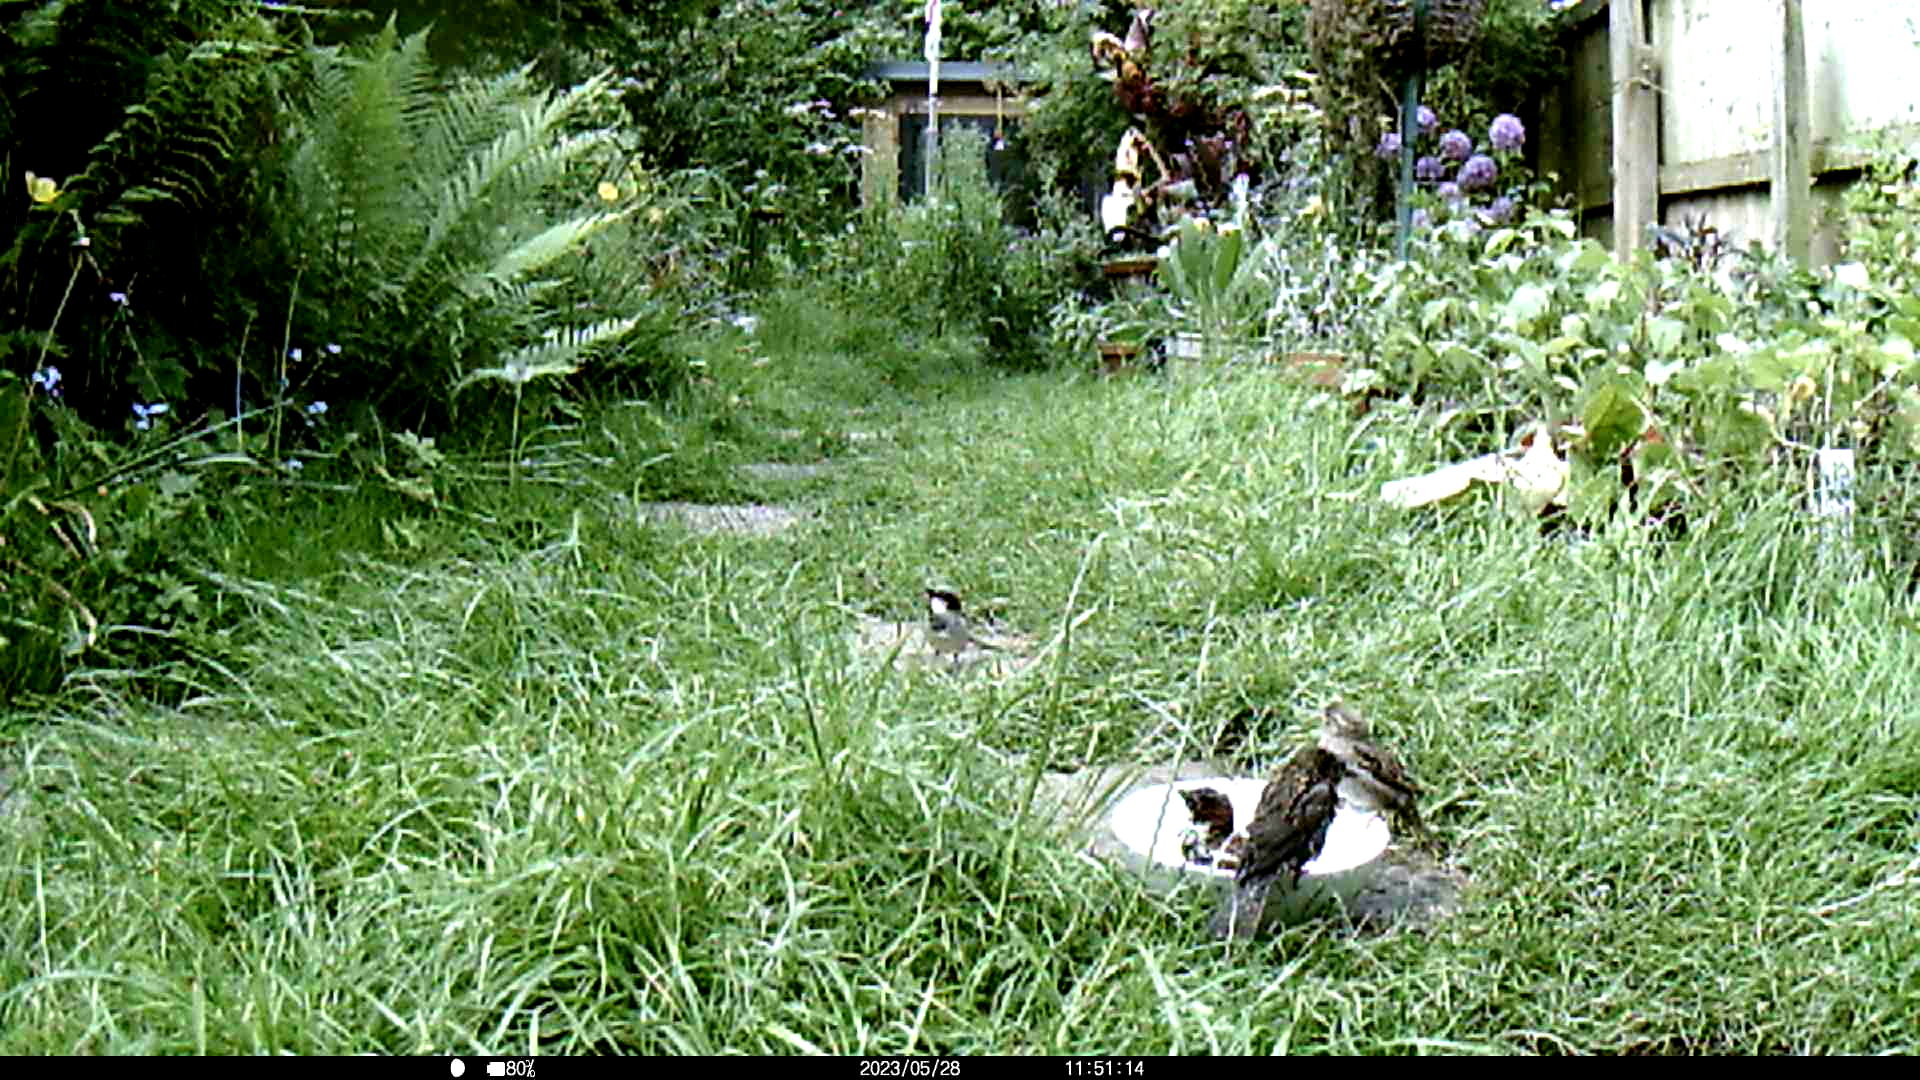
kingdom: Animalia
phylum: Chordata
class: Aves
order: Passeriformes
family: Passeridae
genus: Passer
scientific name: Passer domesticus
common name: House sparrow
